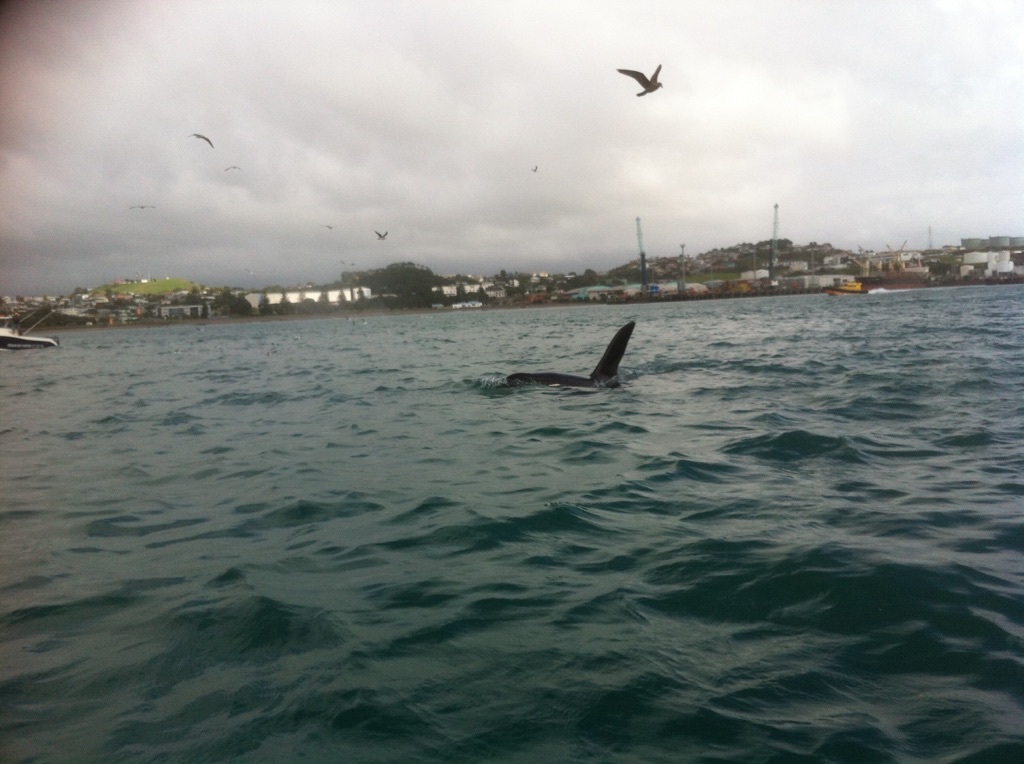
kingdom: Animalia
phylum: Chordata
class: Mammalia
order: Cetacea
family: Delphinidae
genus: Orcinus
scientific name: Orcinus orca
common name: Killer whale
